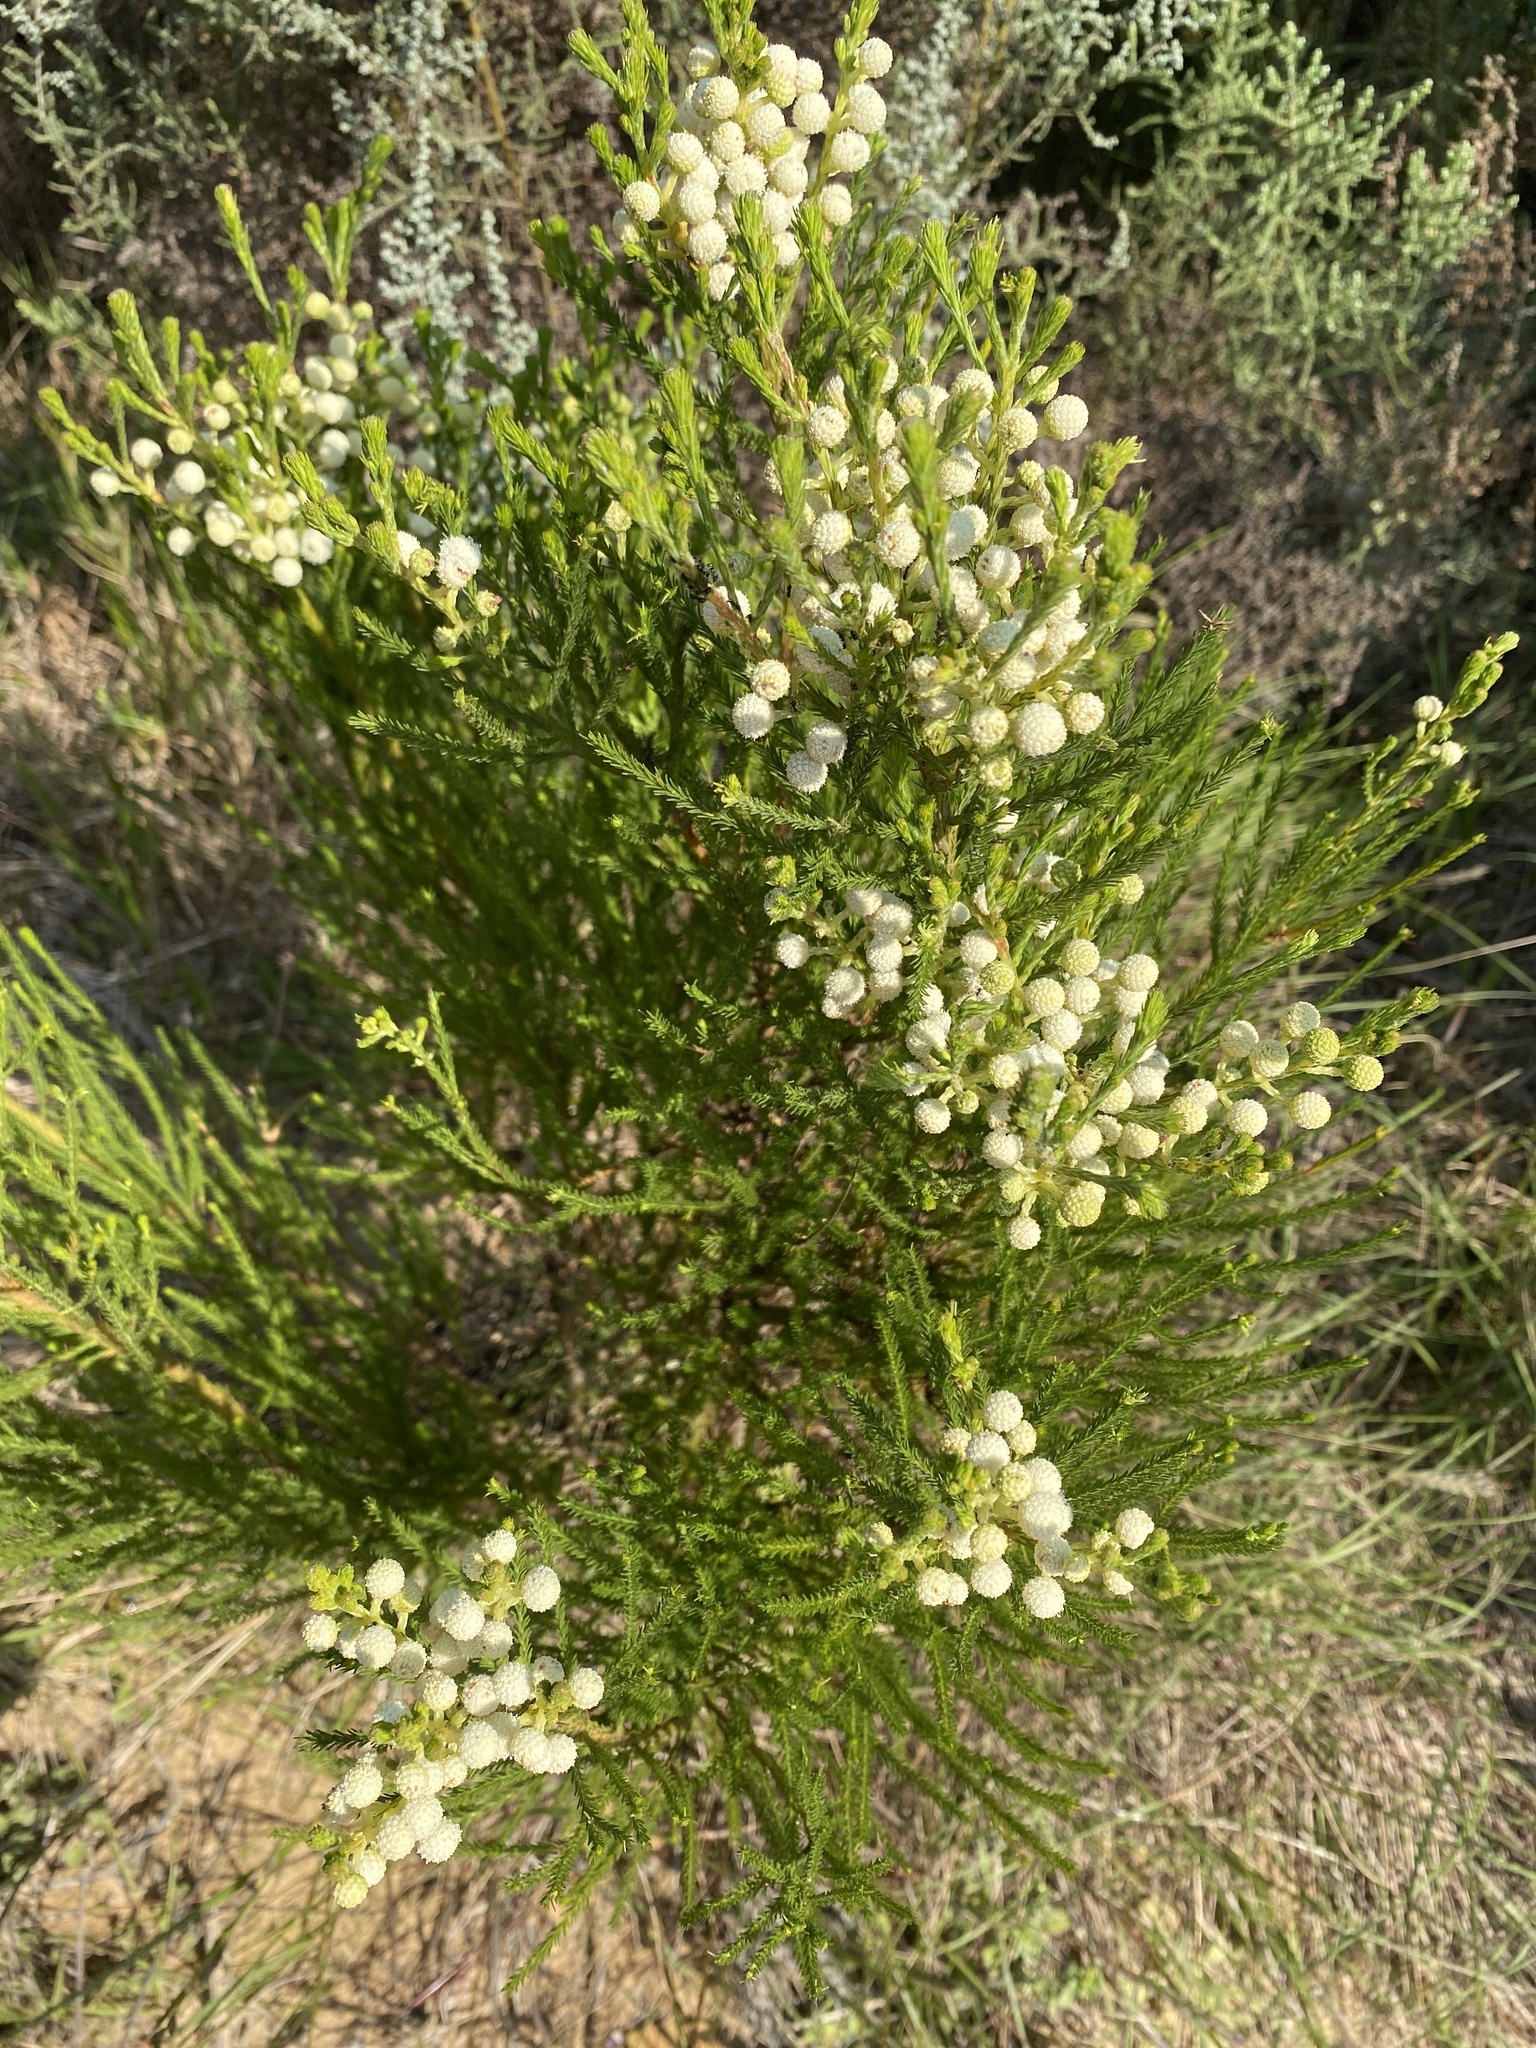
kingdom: Plantae
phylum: Tracheophyta
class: Magnoliopsida
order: Bruniales
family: Bruniaceae
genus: Berzelia
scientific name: Berzelia lanuginosa
